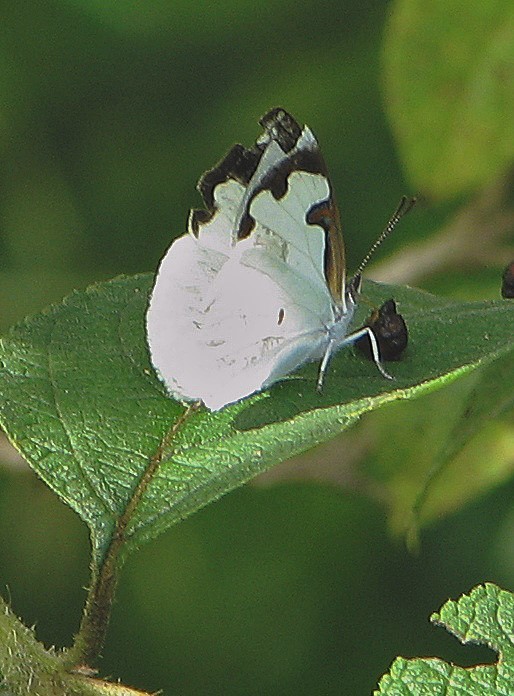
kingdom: Animalia
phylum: Arthropoda
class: Insecta
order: Lepidoptera
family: Nymphalidae
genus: Dynamine
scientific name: Dynamine myrrhina
